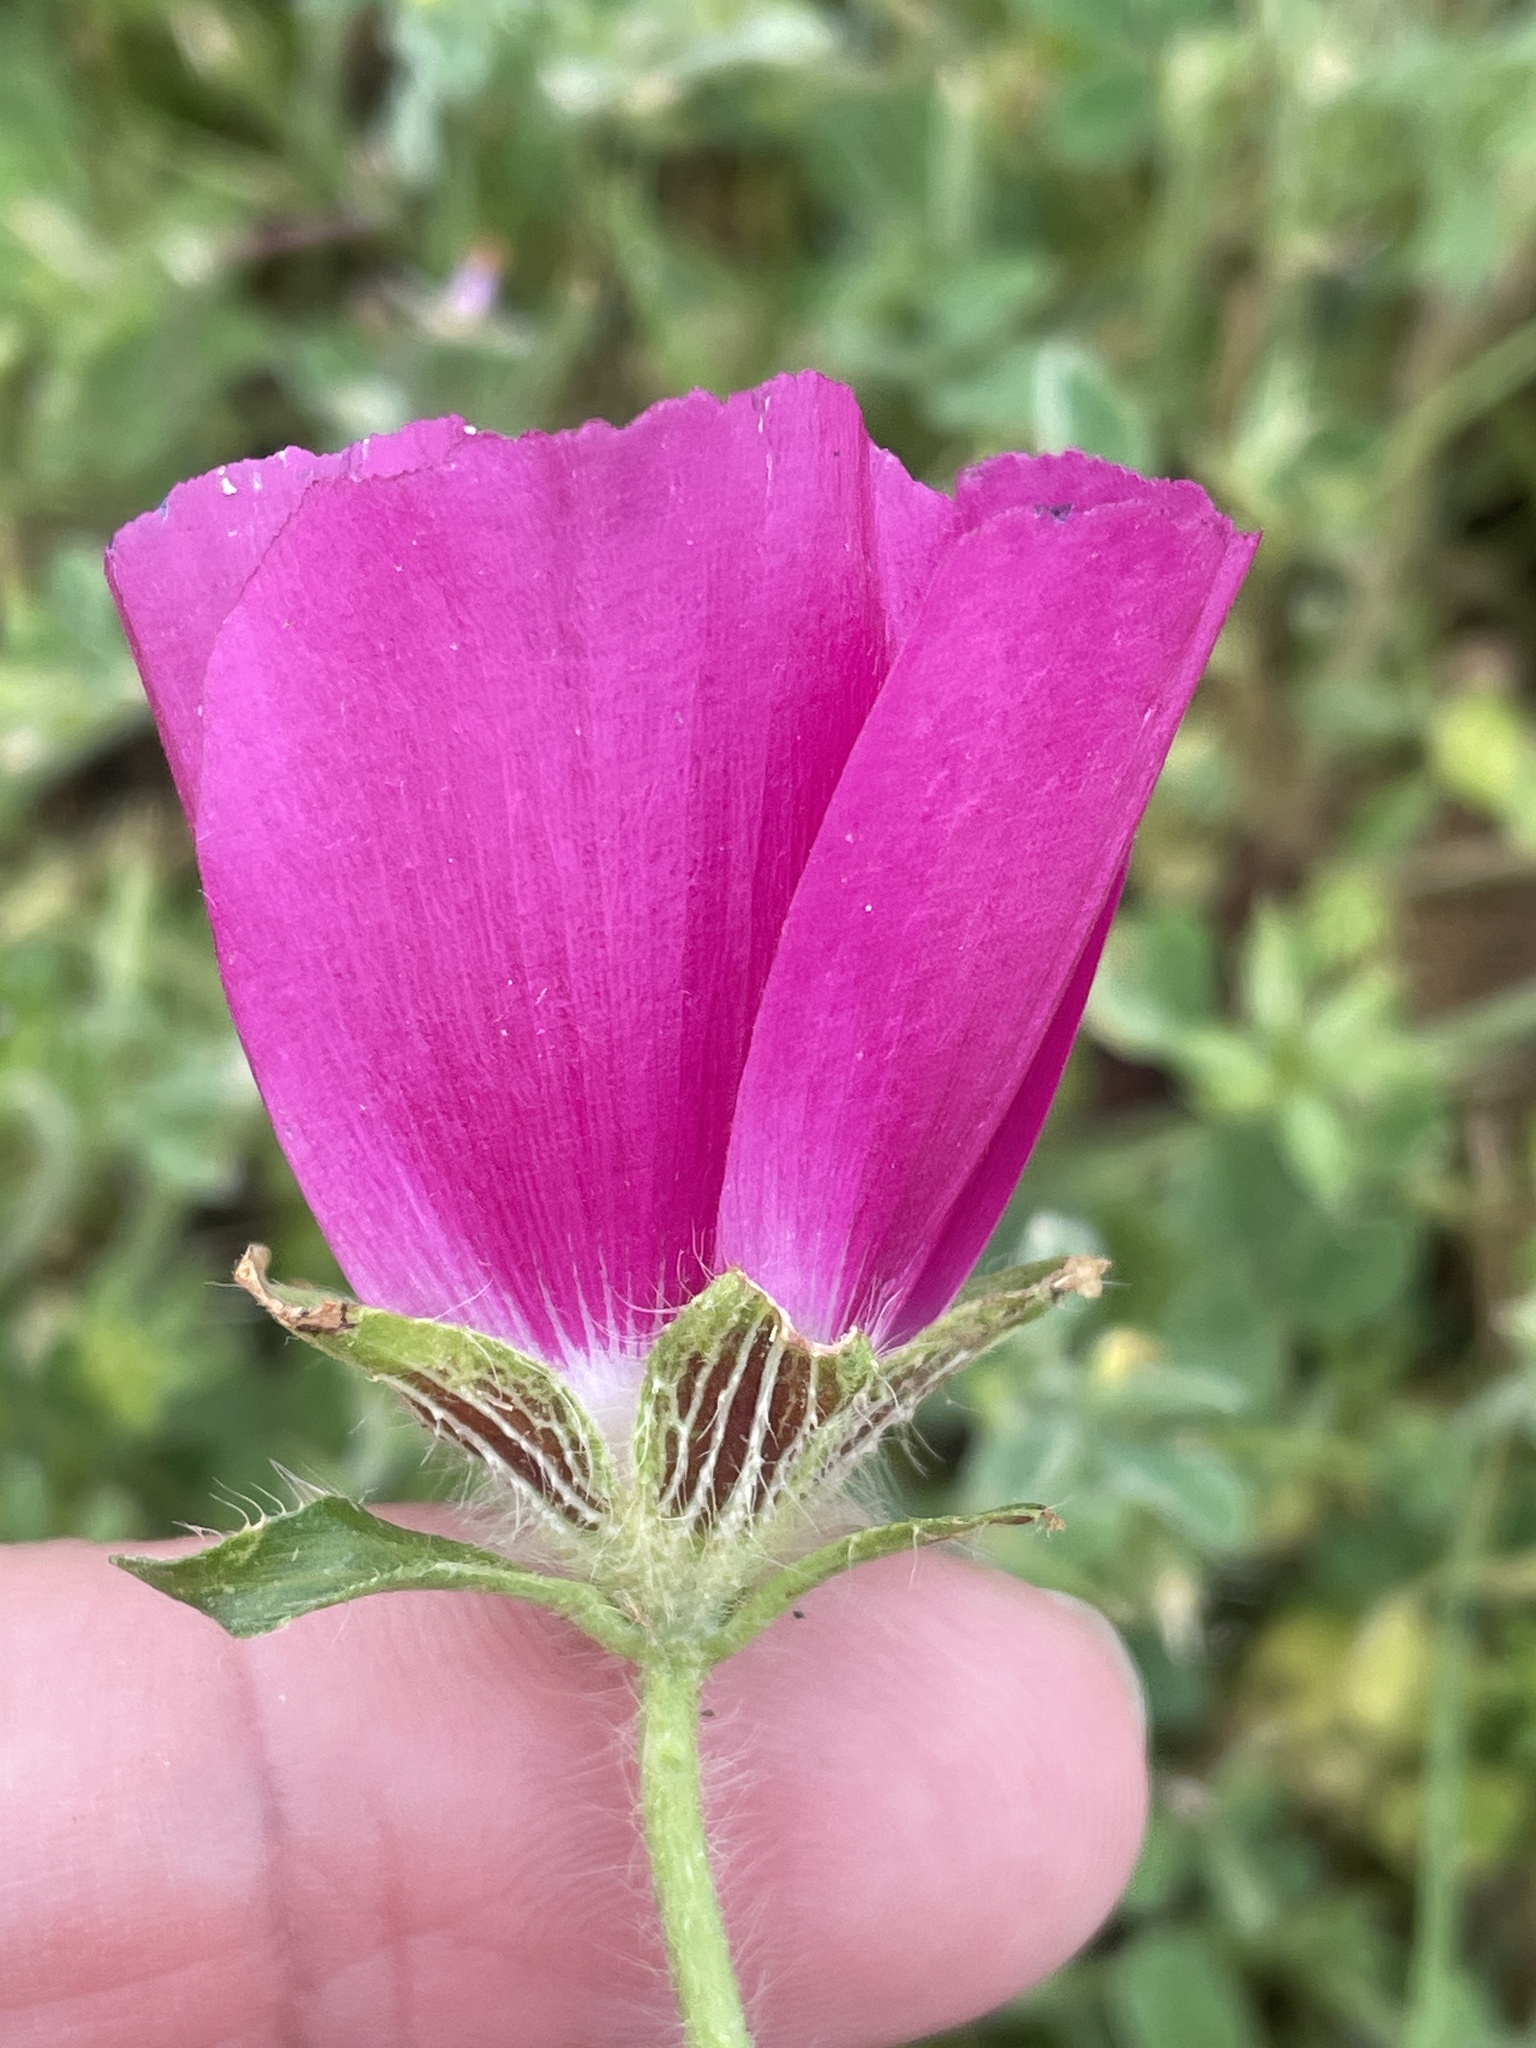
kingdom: Plantae
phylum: Tracheophyta
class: Magnoliopsida
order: Malvales
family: Malvaceae
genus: Callirhoe
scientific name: Callirhoe involucrata
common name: Purple poppy-mallow
